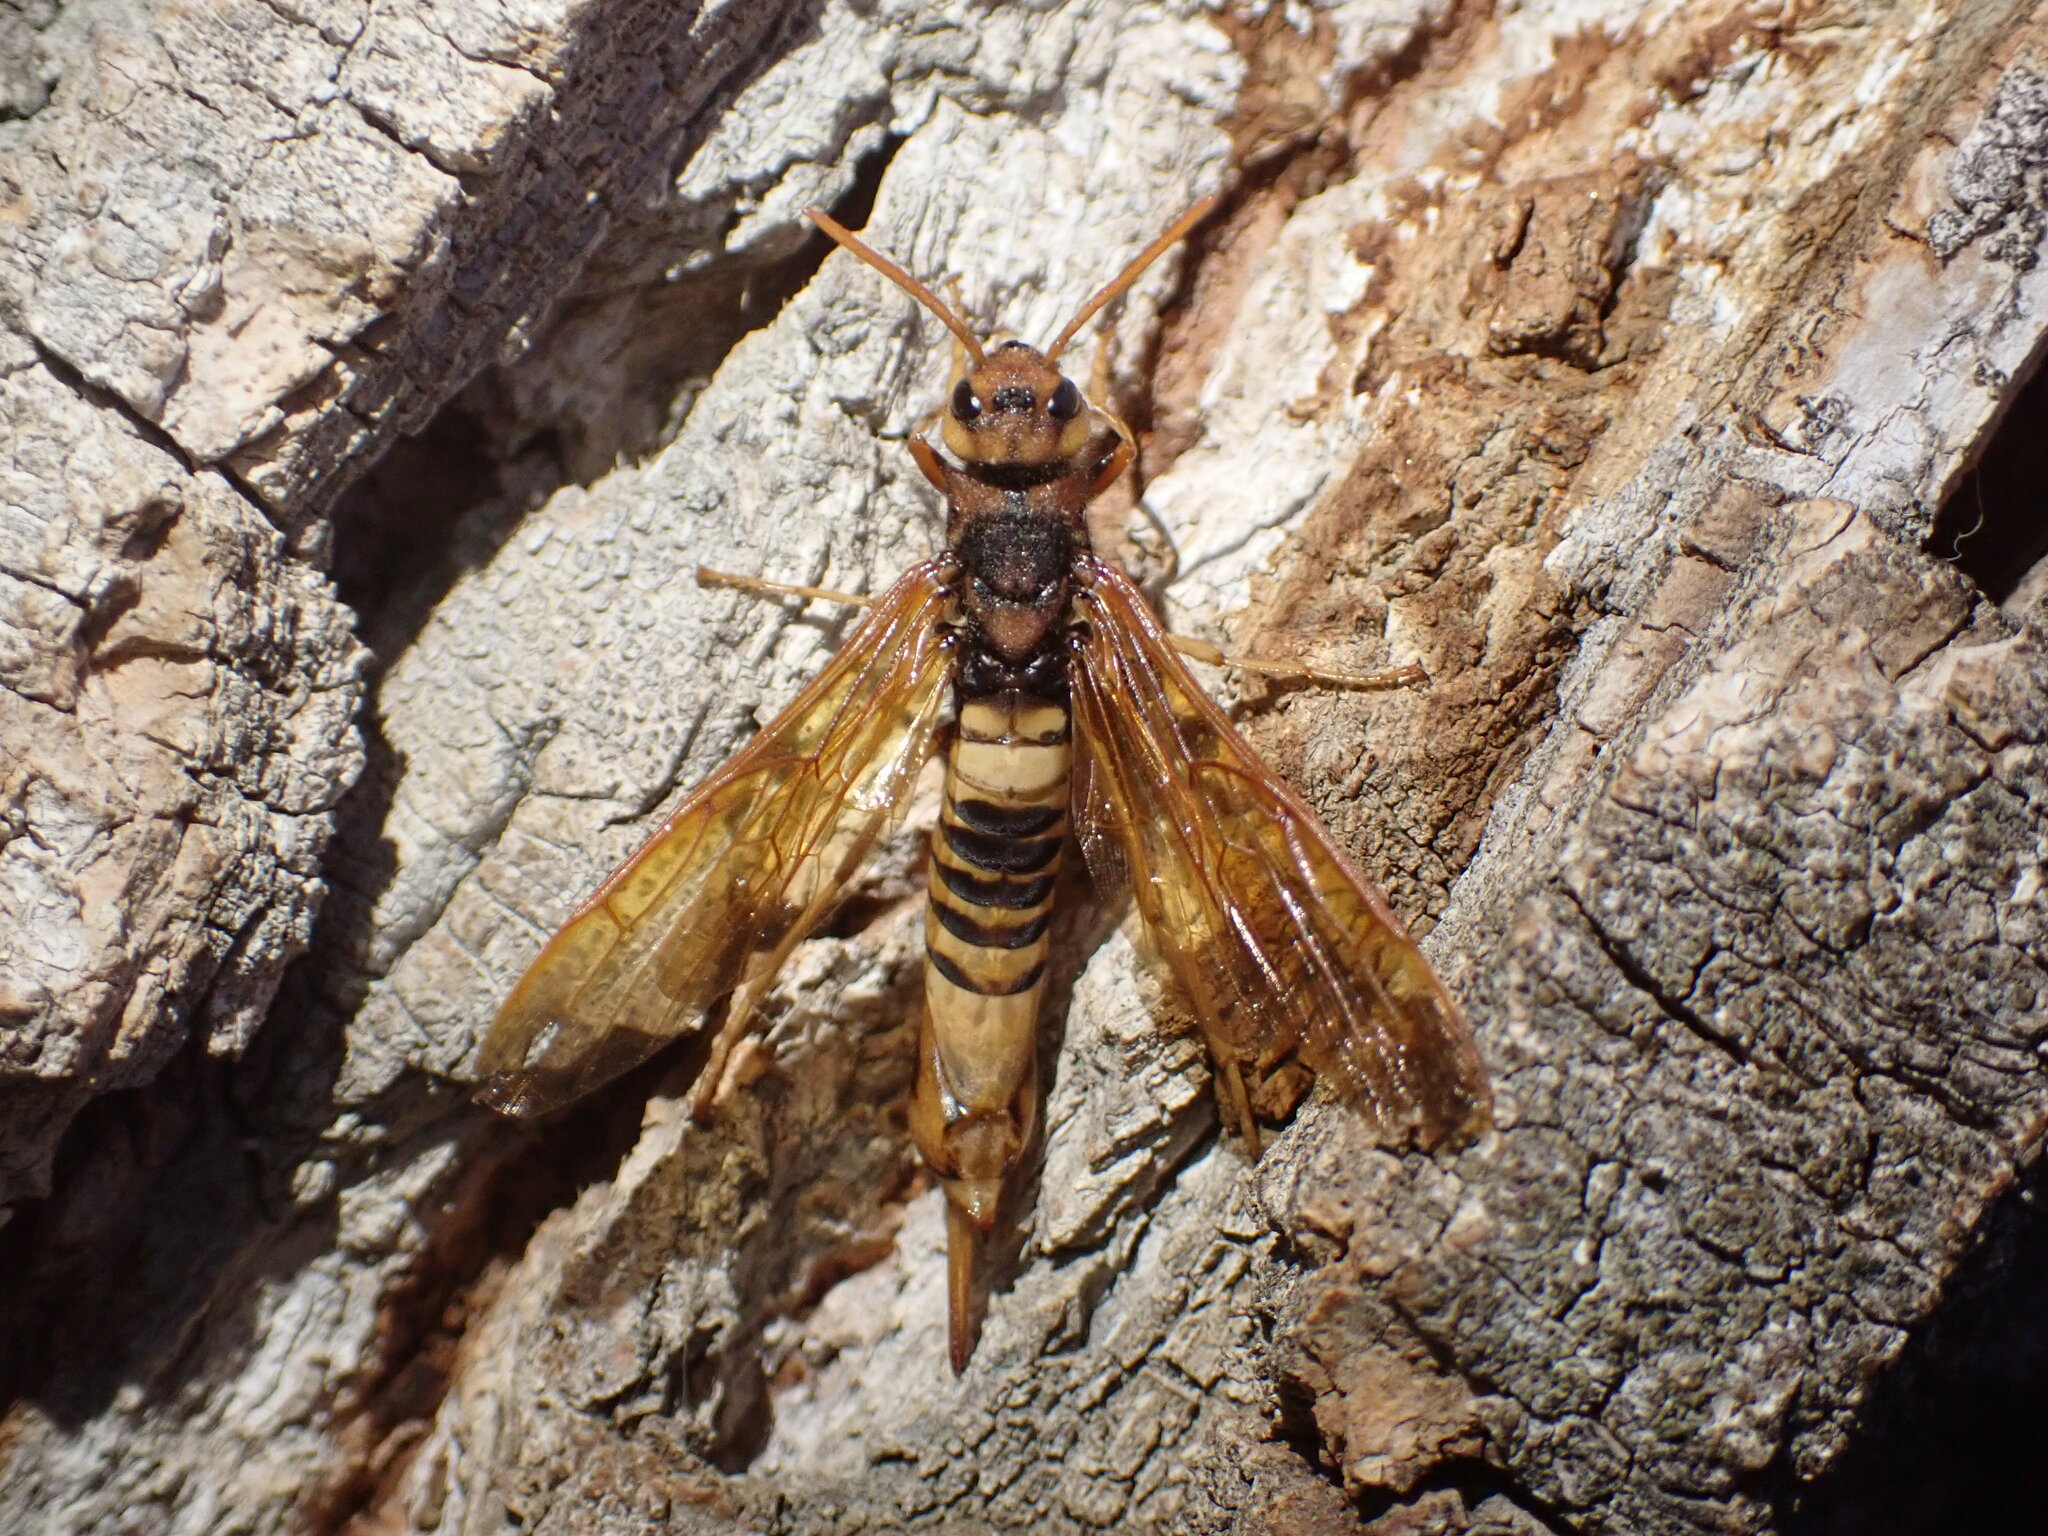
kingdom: Animalia
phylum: Arthropoda
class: Insecta
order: Hymenoptera
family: Siricidae
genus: Tremex
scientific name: Tremex columba
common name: Wasp
